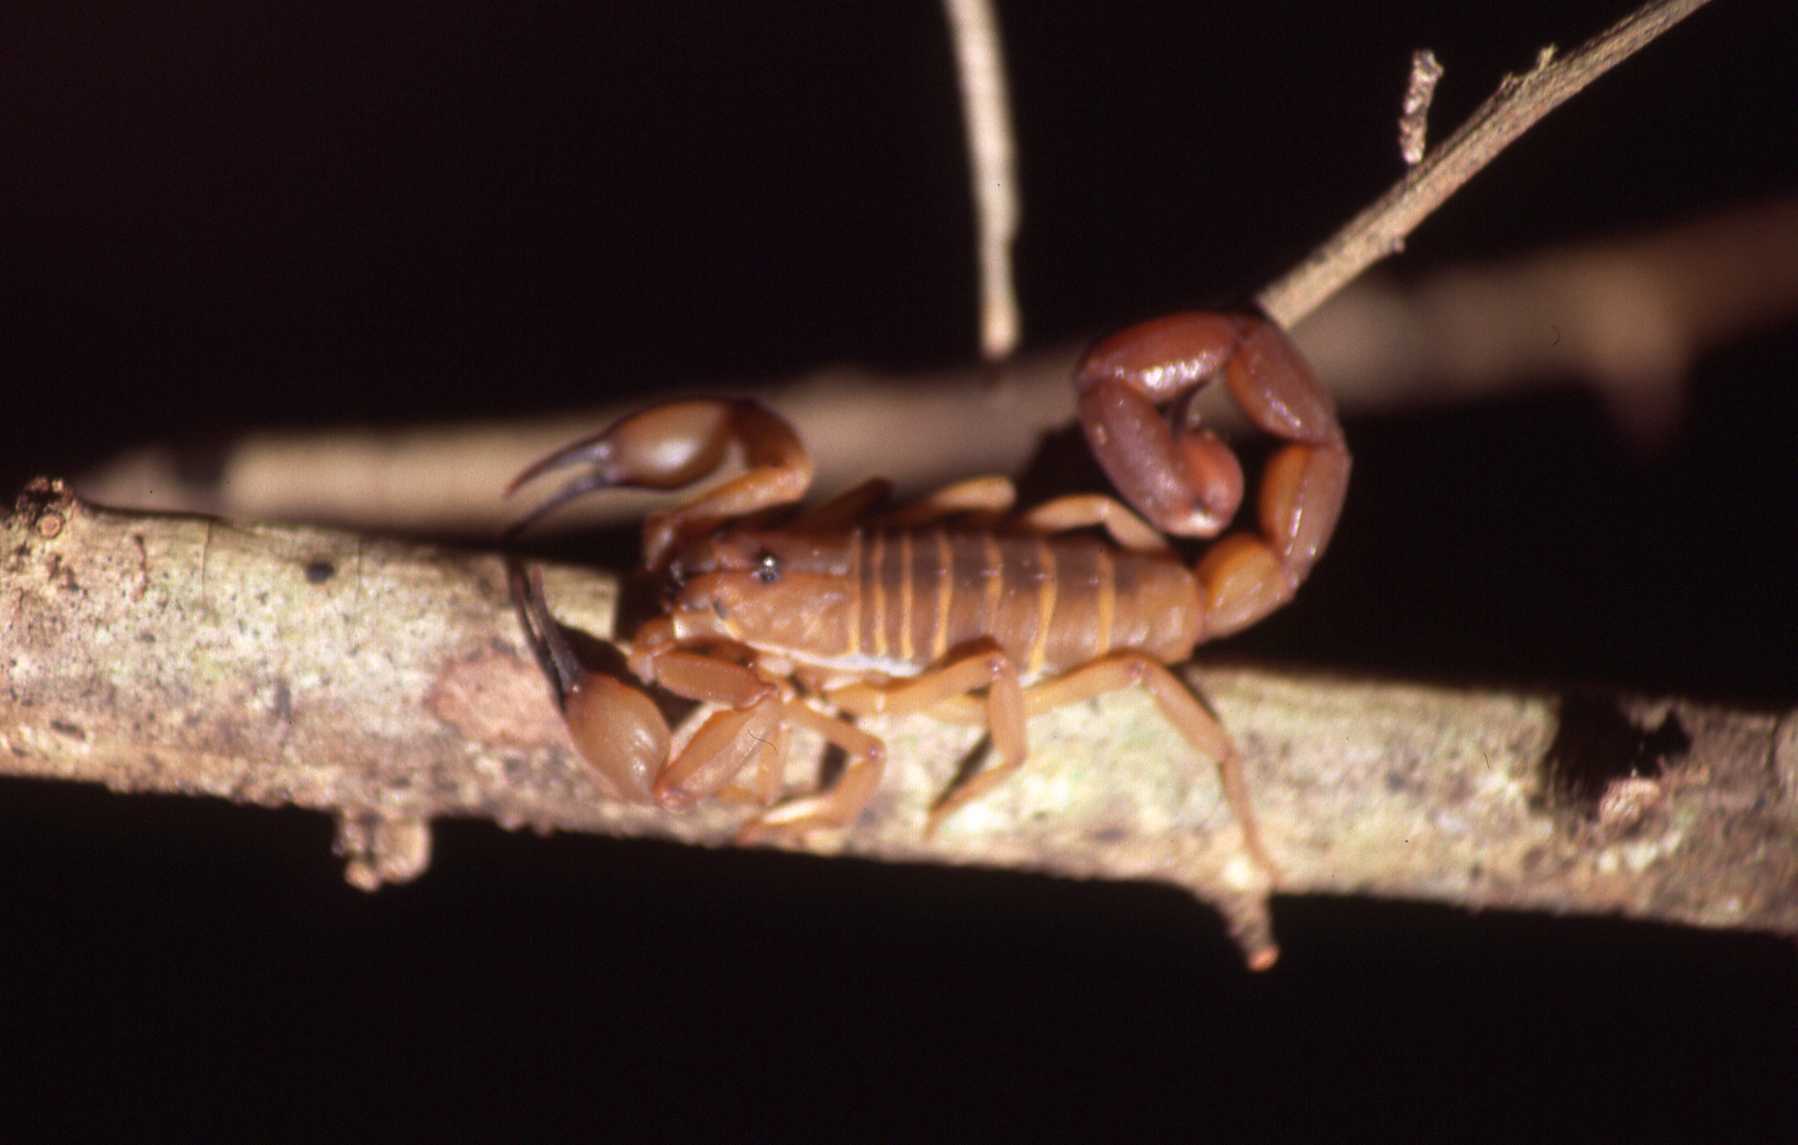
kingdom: Animalia
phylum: Arthropoda
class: Arachnida
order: Scorpiones
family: Buthidae
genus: Babycurus
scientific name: Babycurus jacksoni
